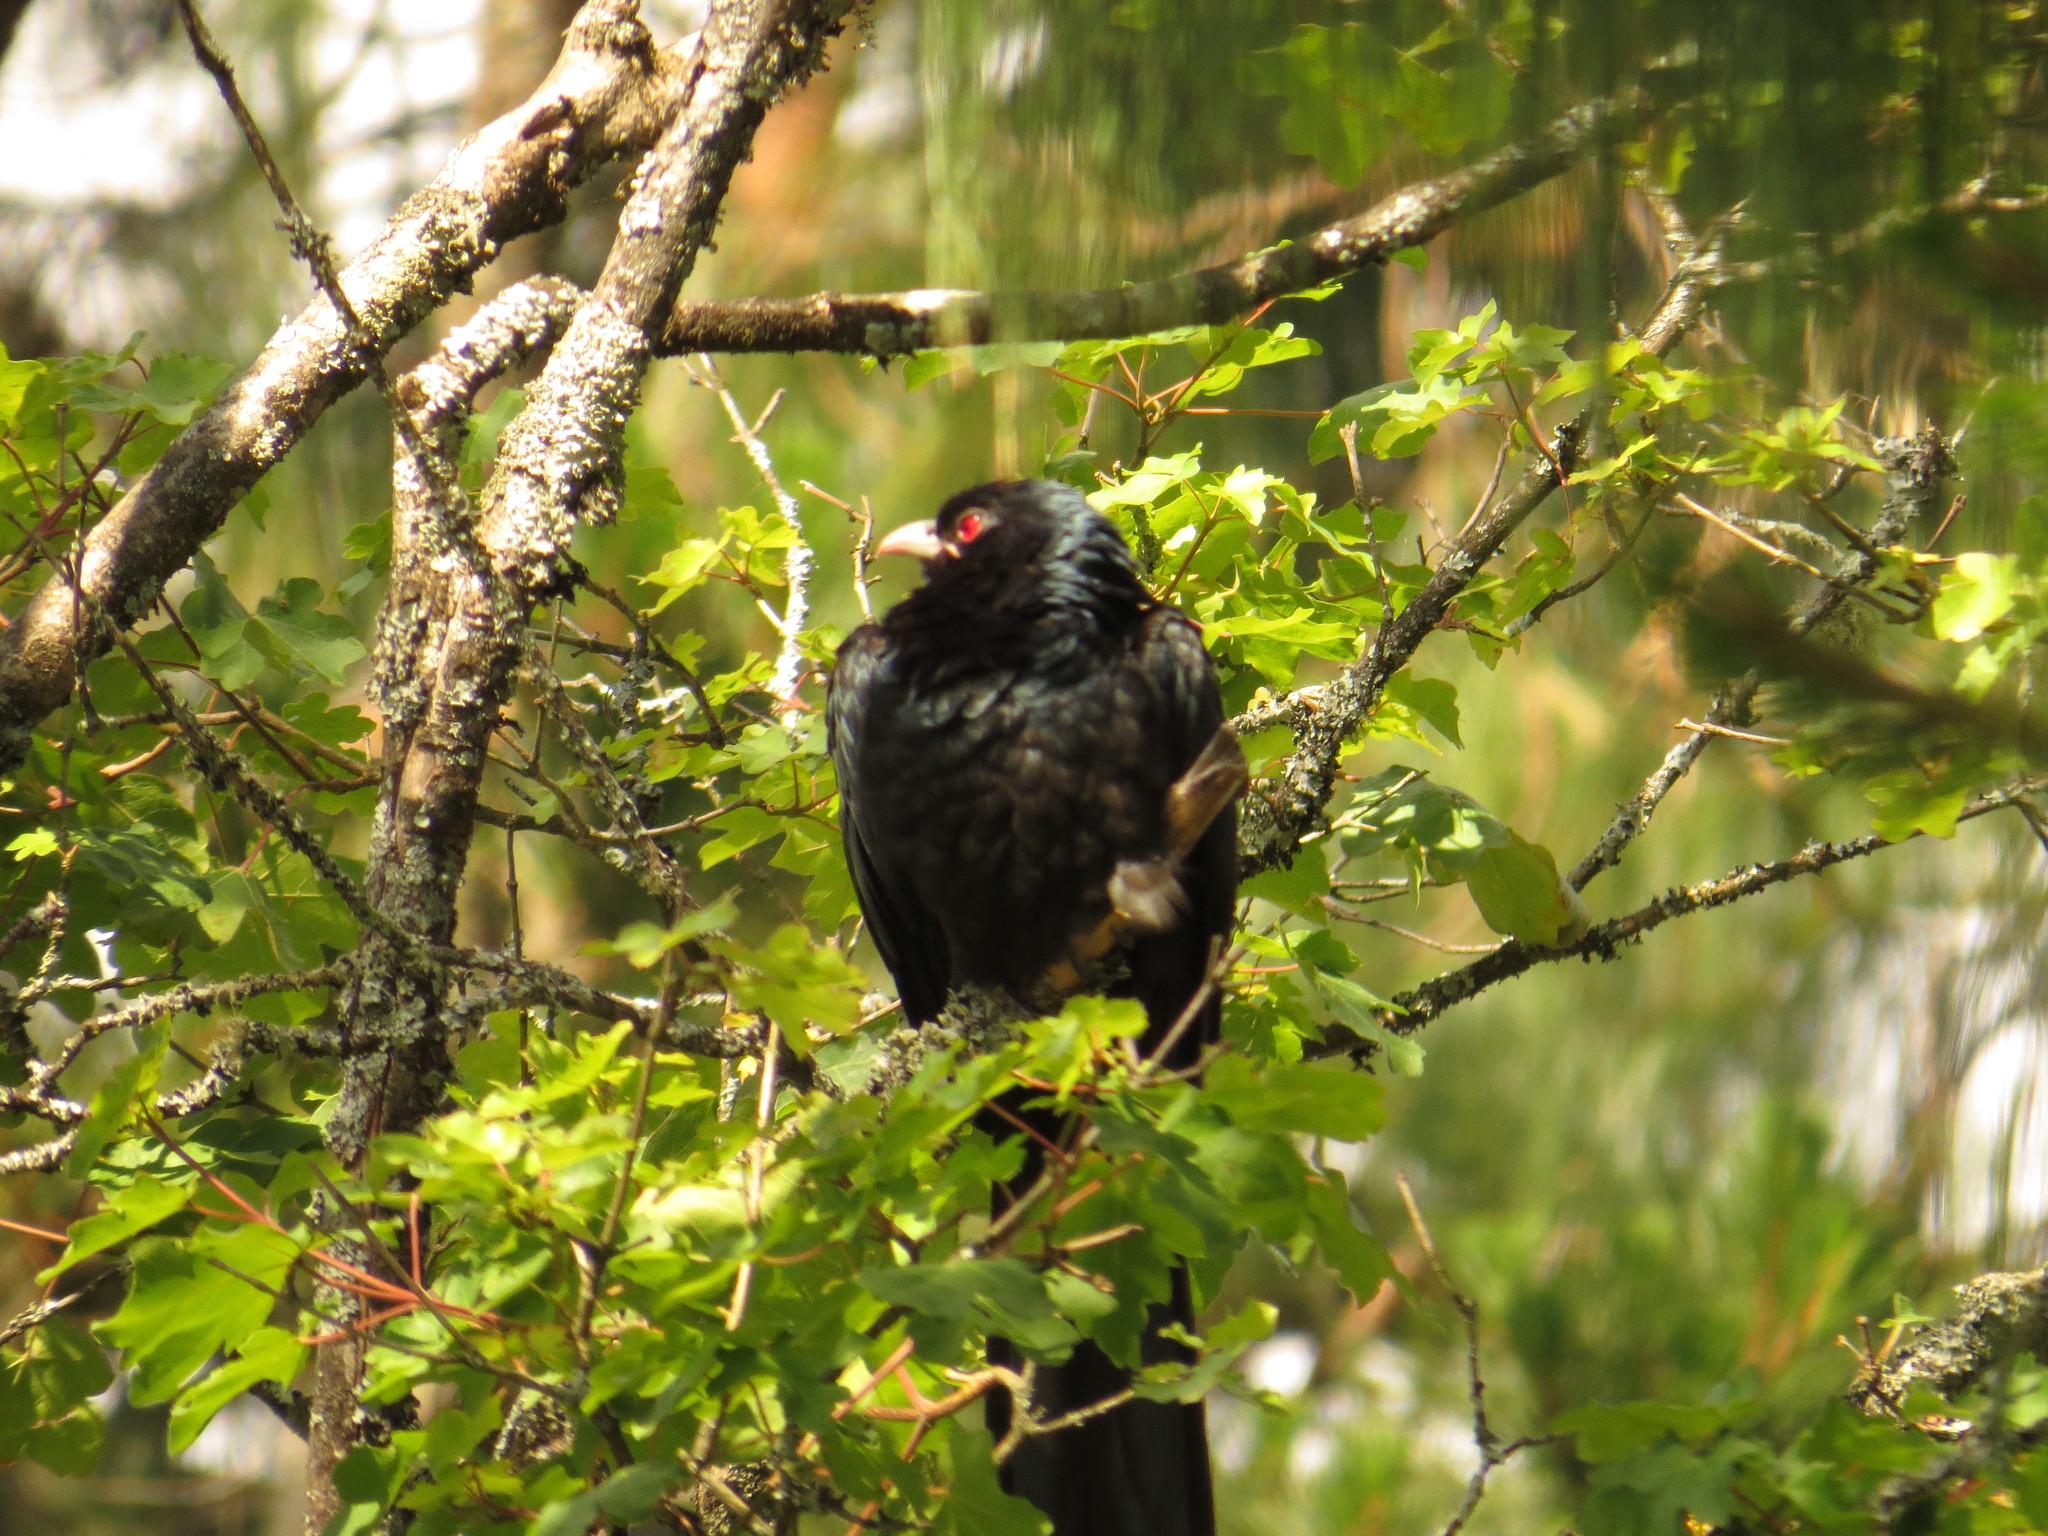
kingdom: Animalia
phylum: Chordata
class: Aves
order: Cuculiformes
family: Cuculidae
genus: Eudynamys
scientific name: Eudynamys orientalis
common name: Pacific koel
